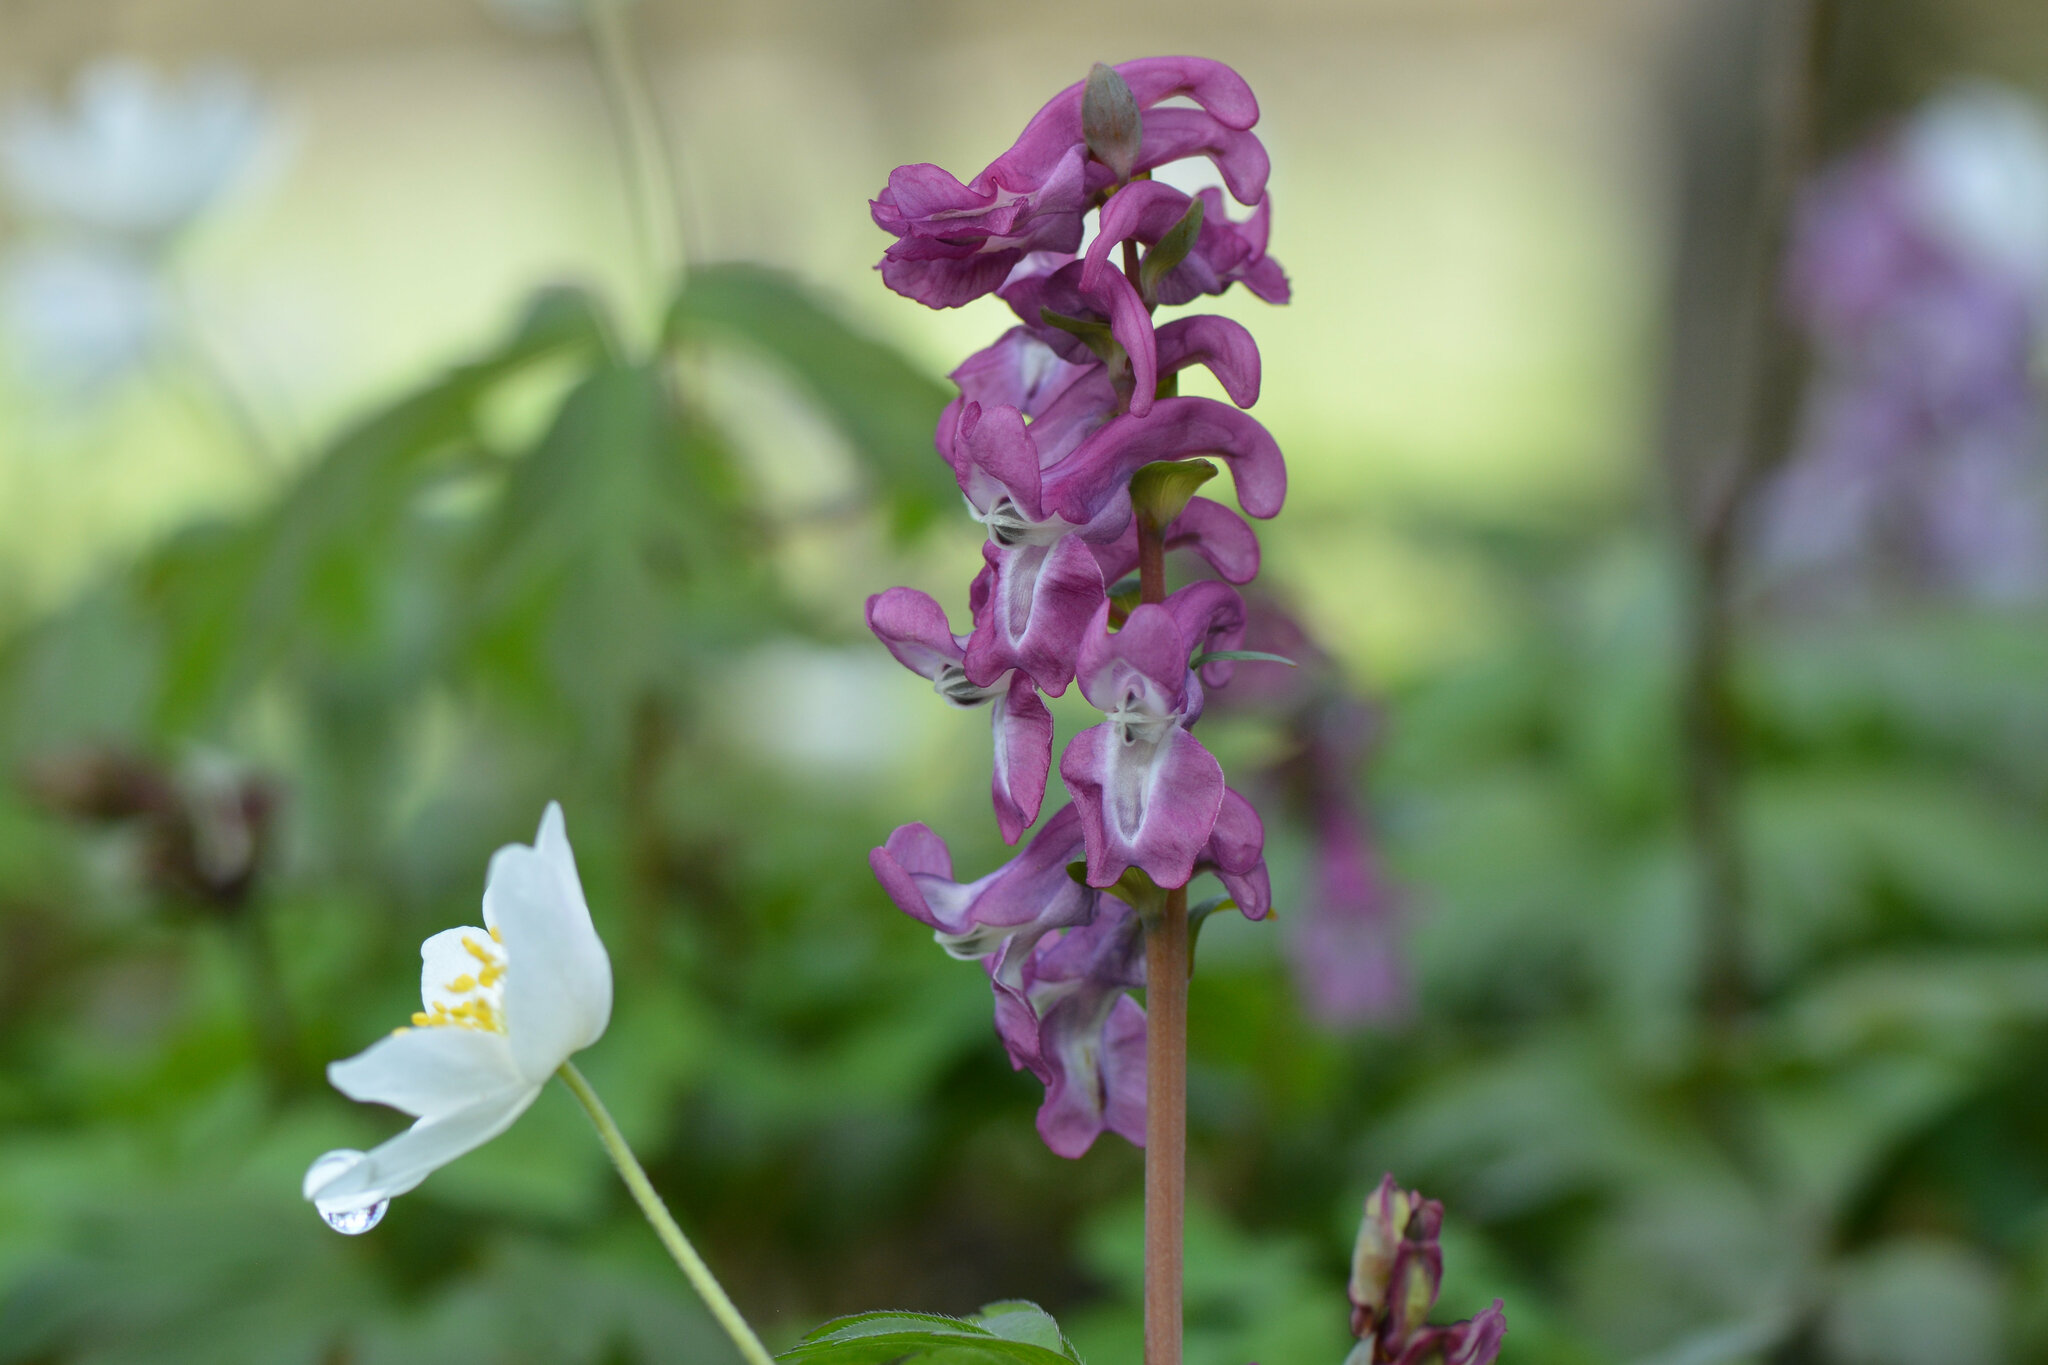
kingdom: Plantae
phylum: Tracheophyta
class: Magnoliopsida
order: Ranunculales
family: Papaveraceae
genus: Corydalis
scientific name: Corydalis cava
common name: Hollowroot
